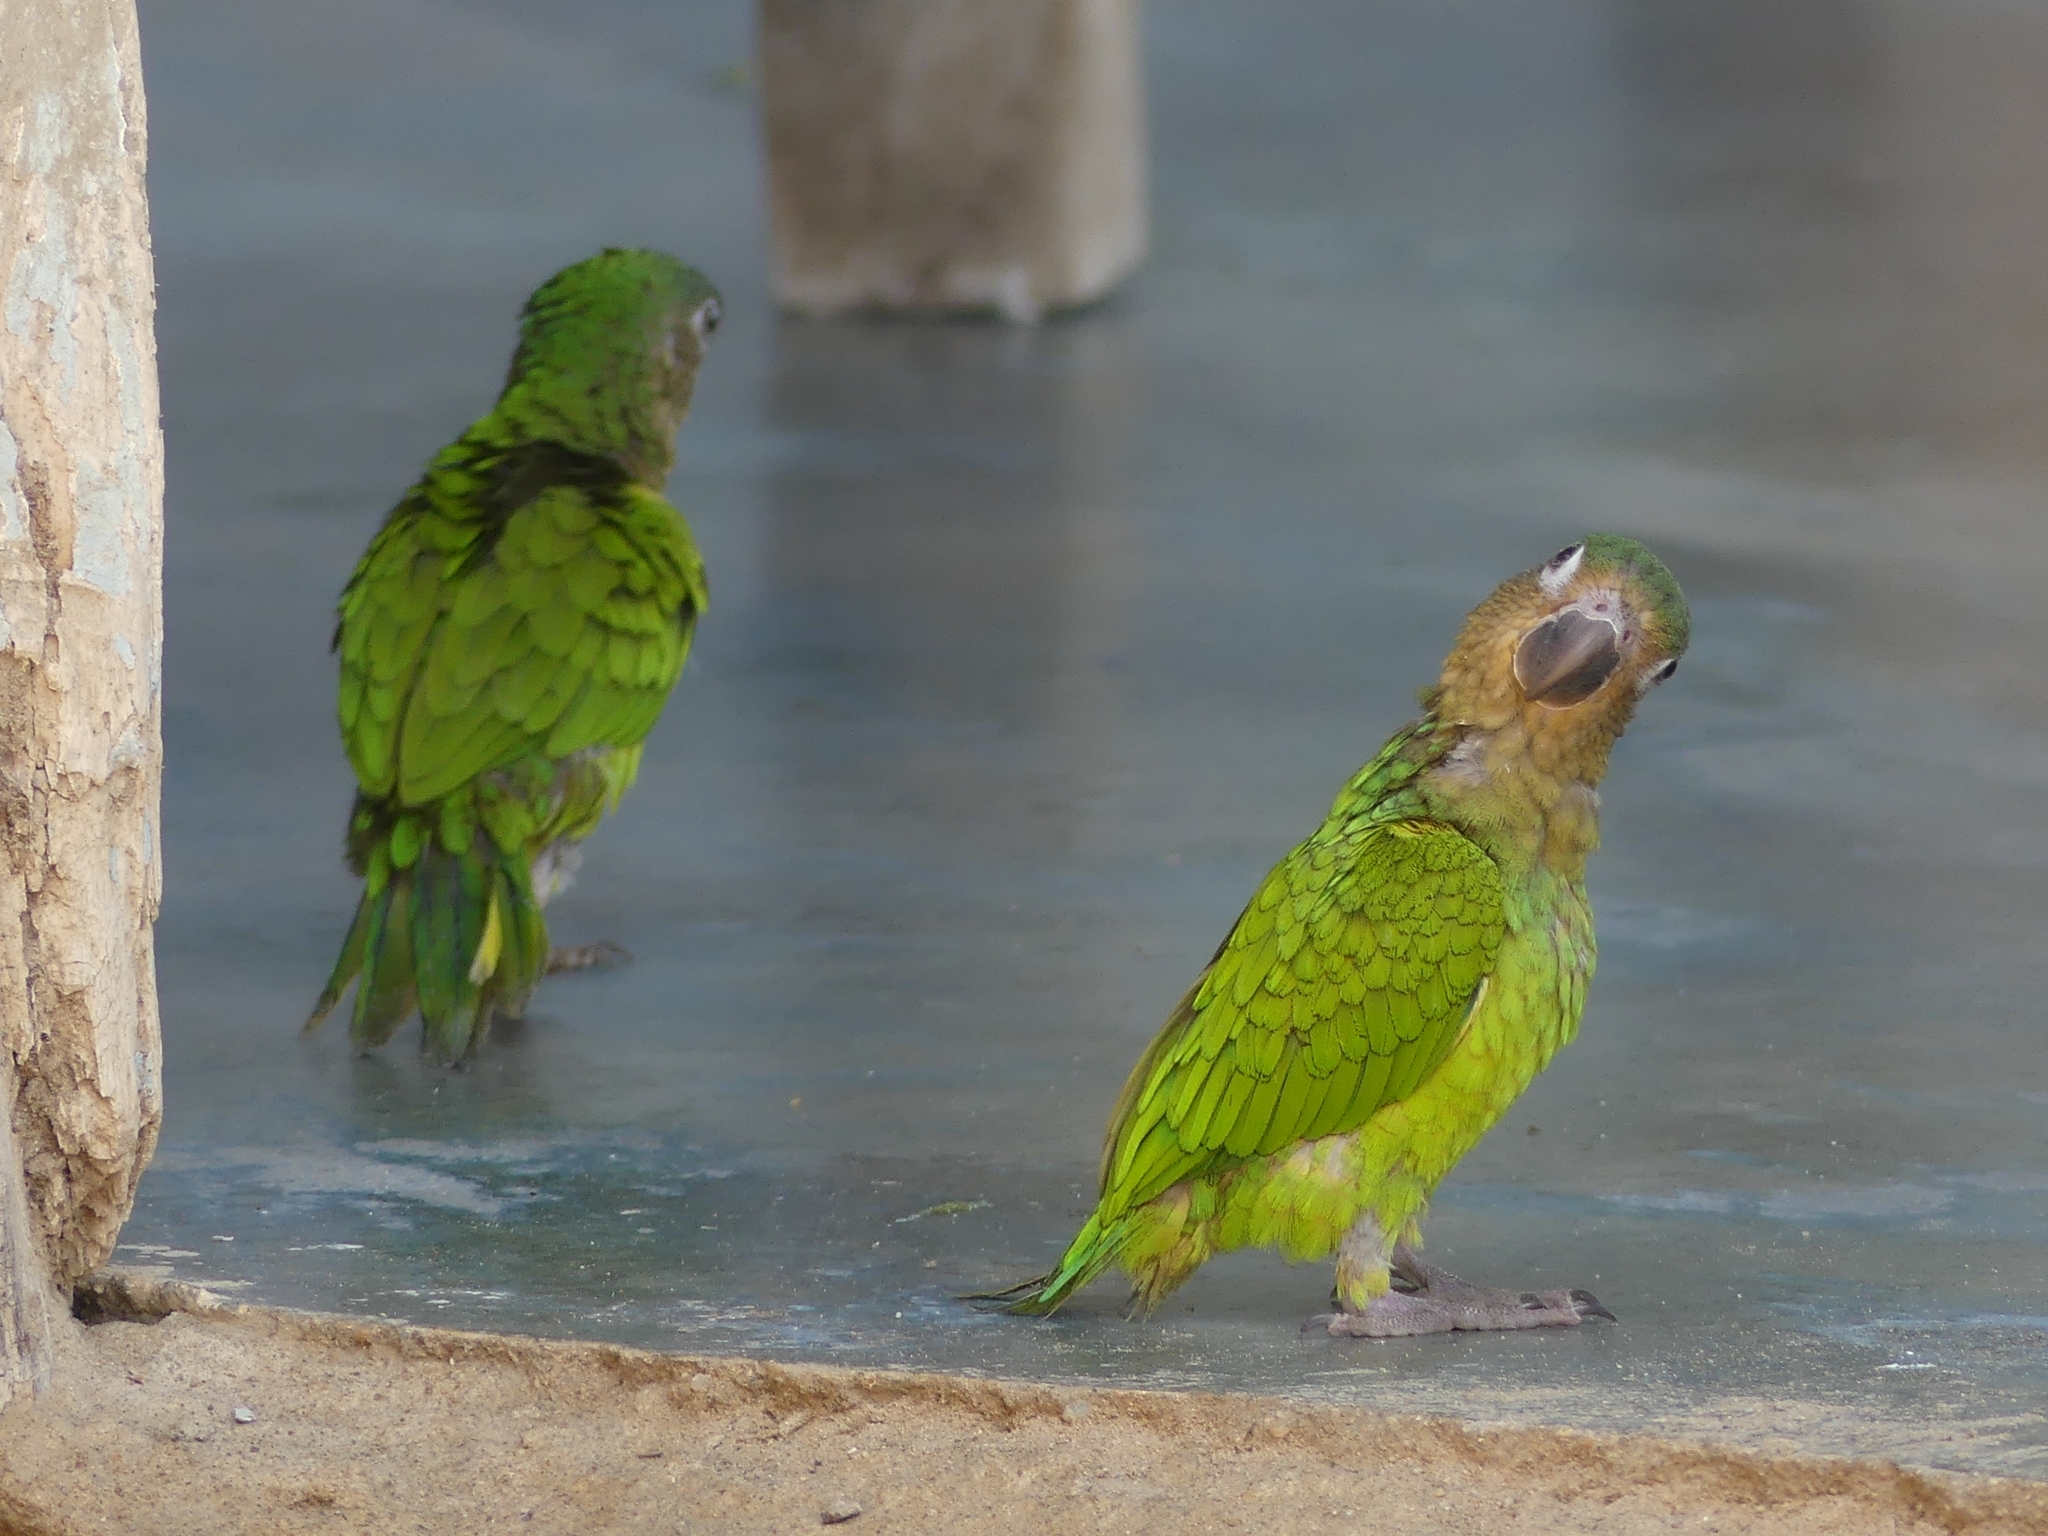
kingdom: Animalia
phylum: Chordata
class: Aves
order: Psittaciformes
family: Psittacidae
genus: Aratinga
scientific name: Aratinga pertinax
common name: Brown-throated parakeet
